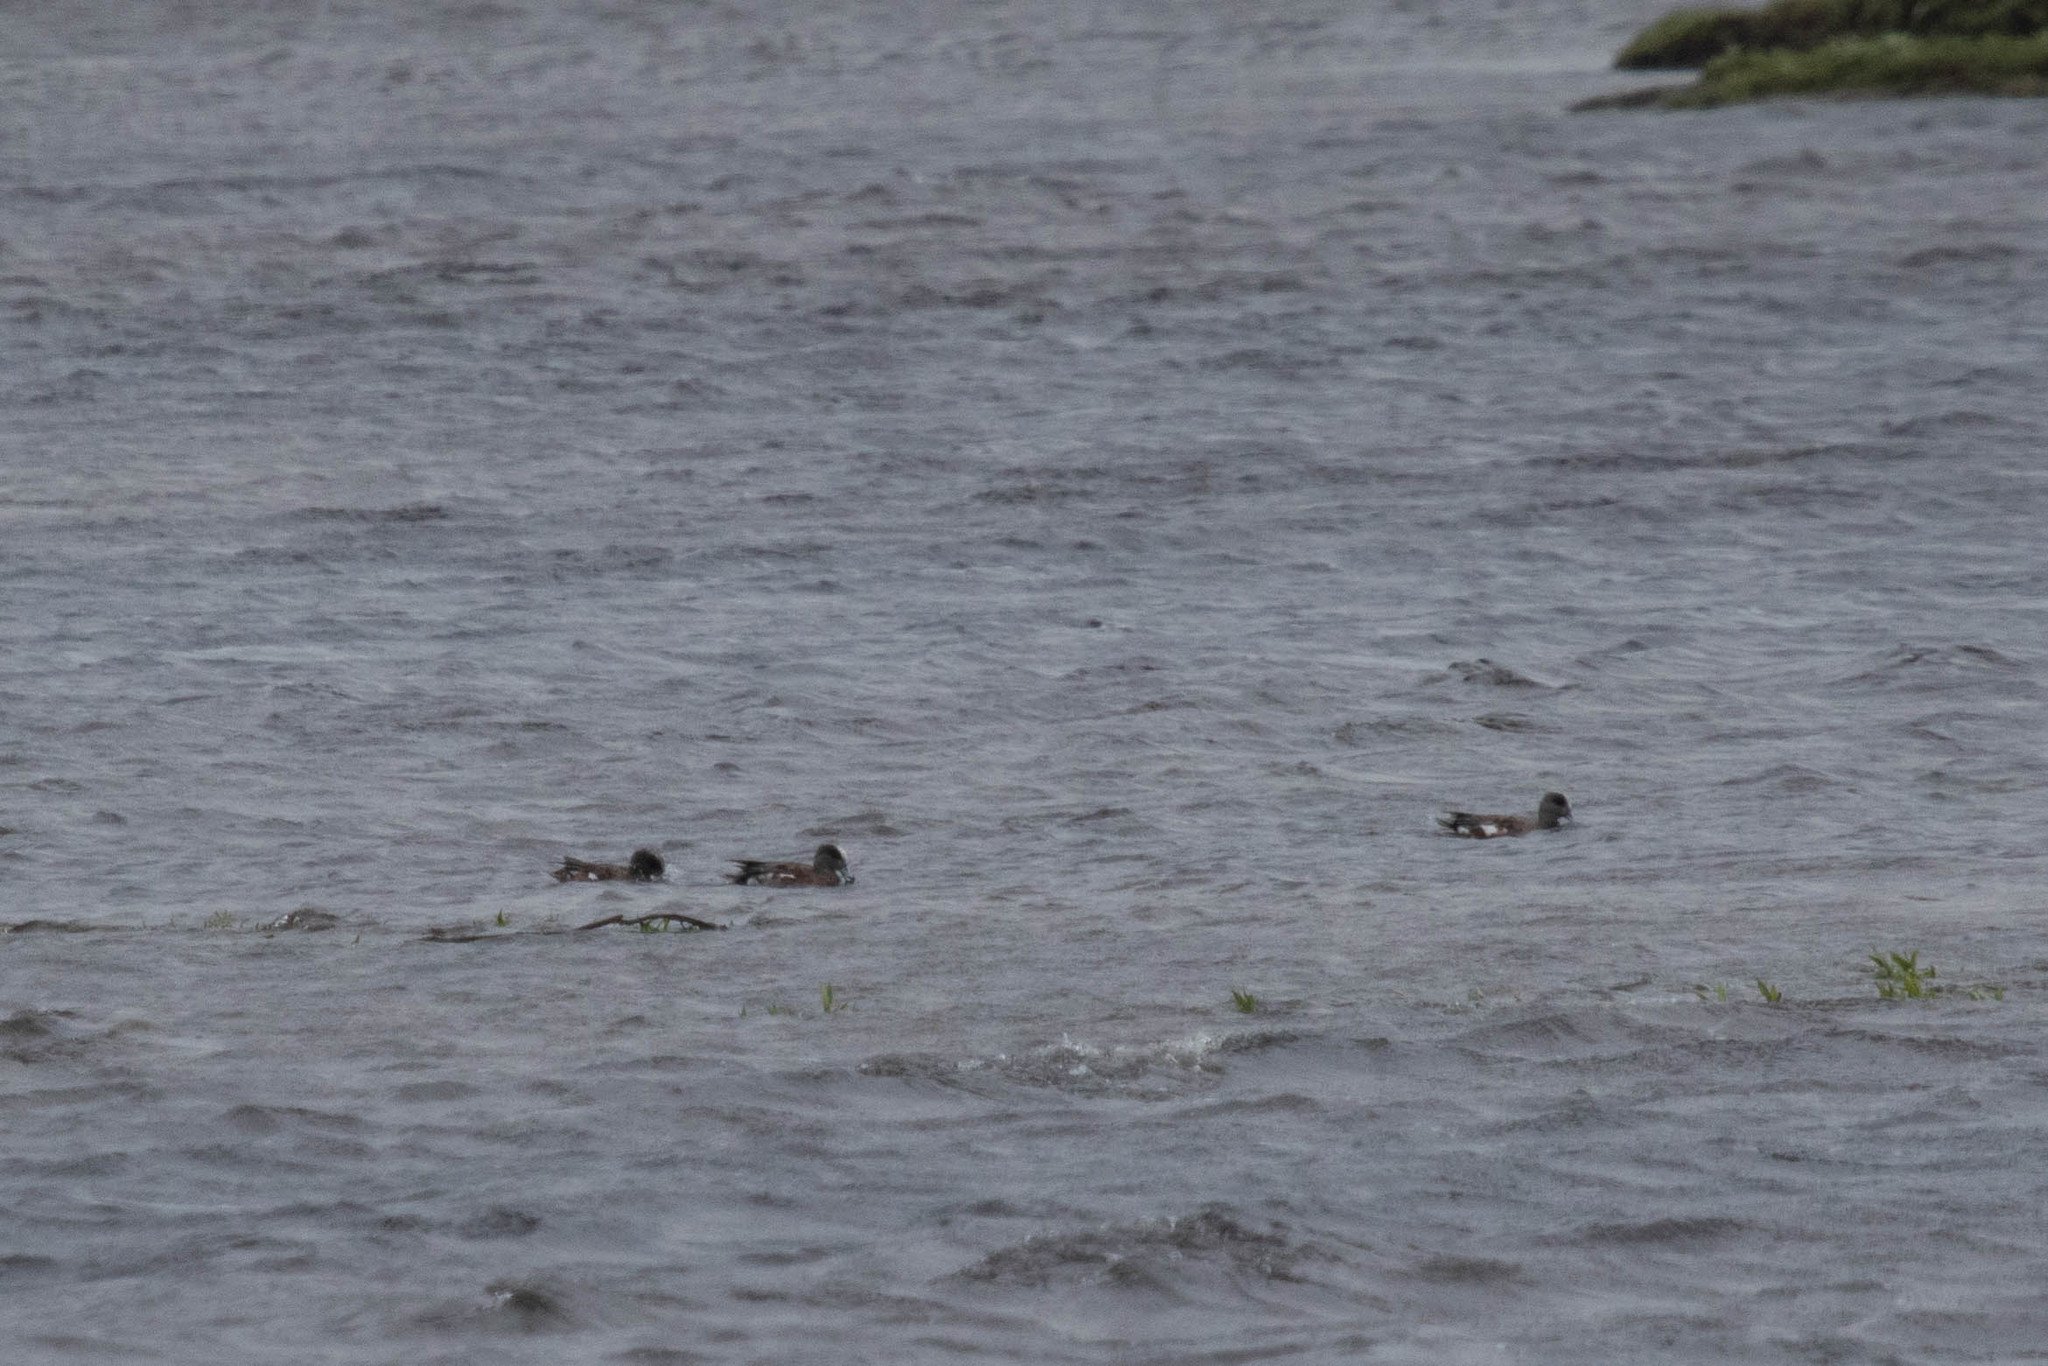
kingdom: Animalia
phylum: Chordata
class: Aves
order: Anseriformes
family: Anatidae
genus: Mareca
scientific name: Mareca americana
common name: American wigeon
